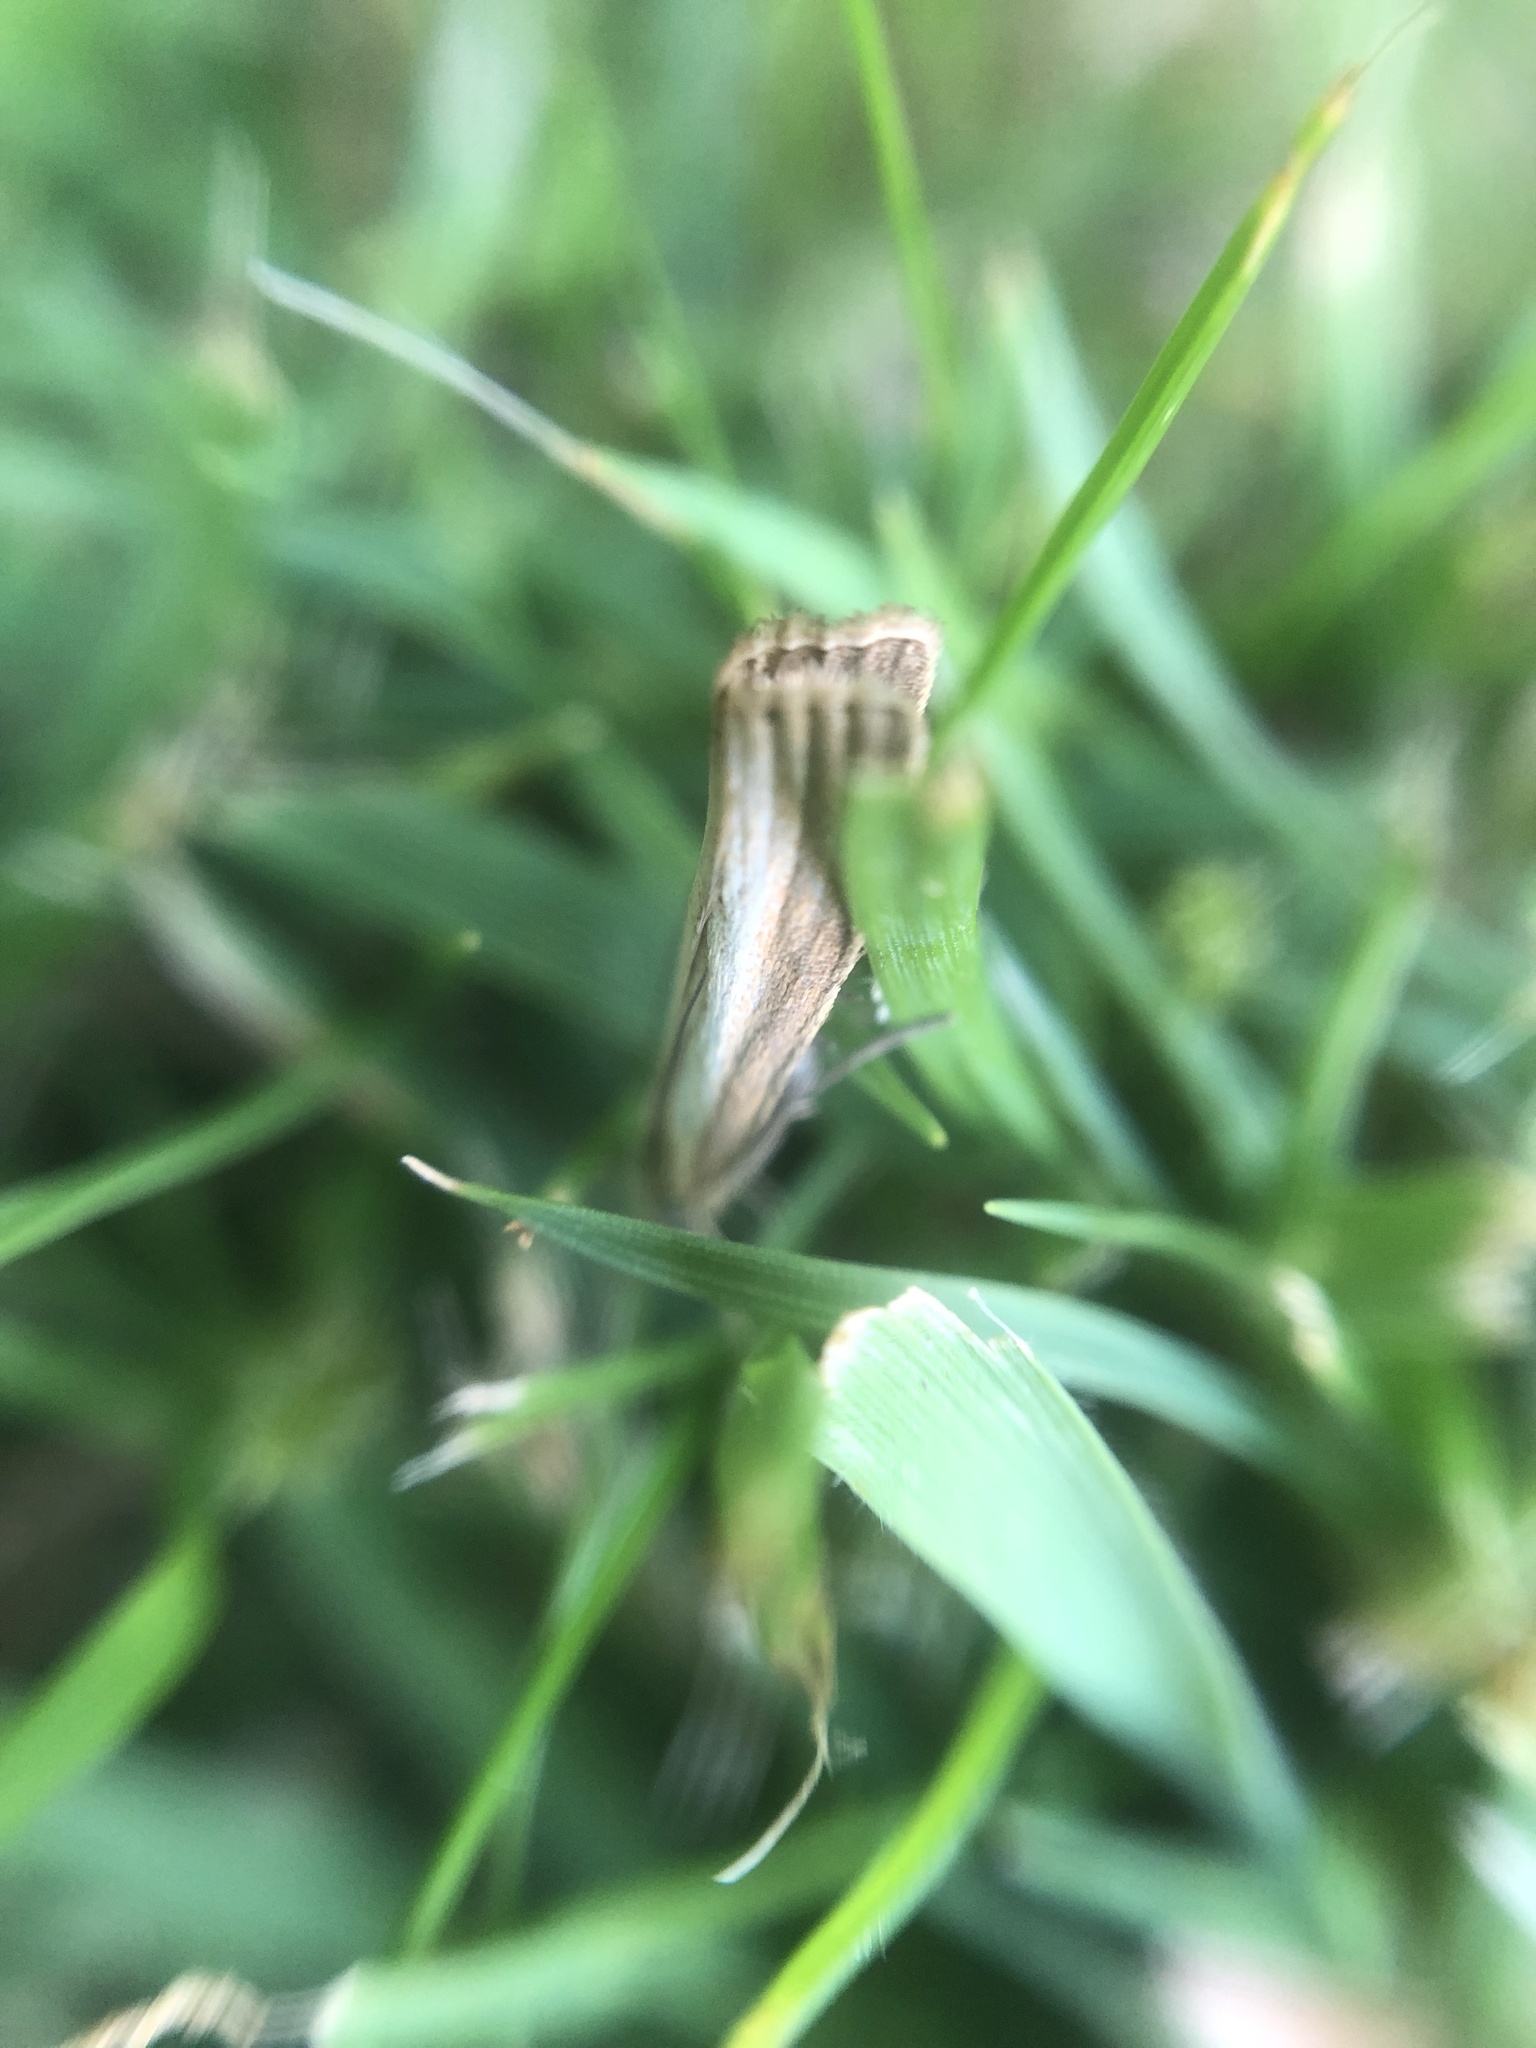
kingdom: Animalia
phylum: Arthropoda
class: Insecta
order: Lepidoptera
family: Crambidae
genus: Agriphila
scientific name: Agriphila straminella
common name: Straw grass-veneer
